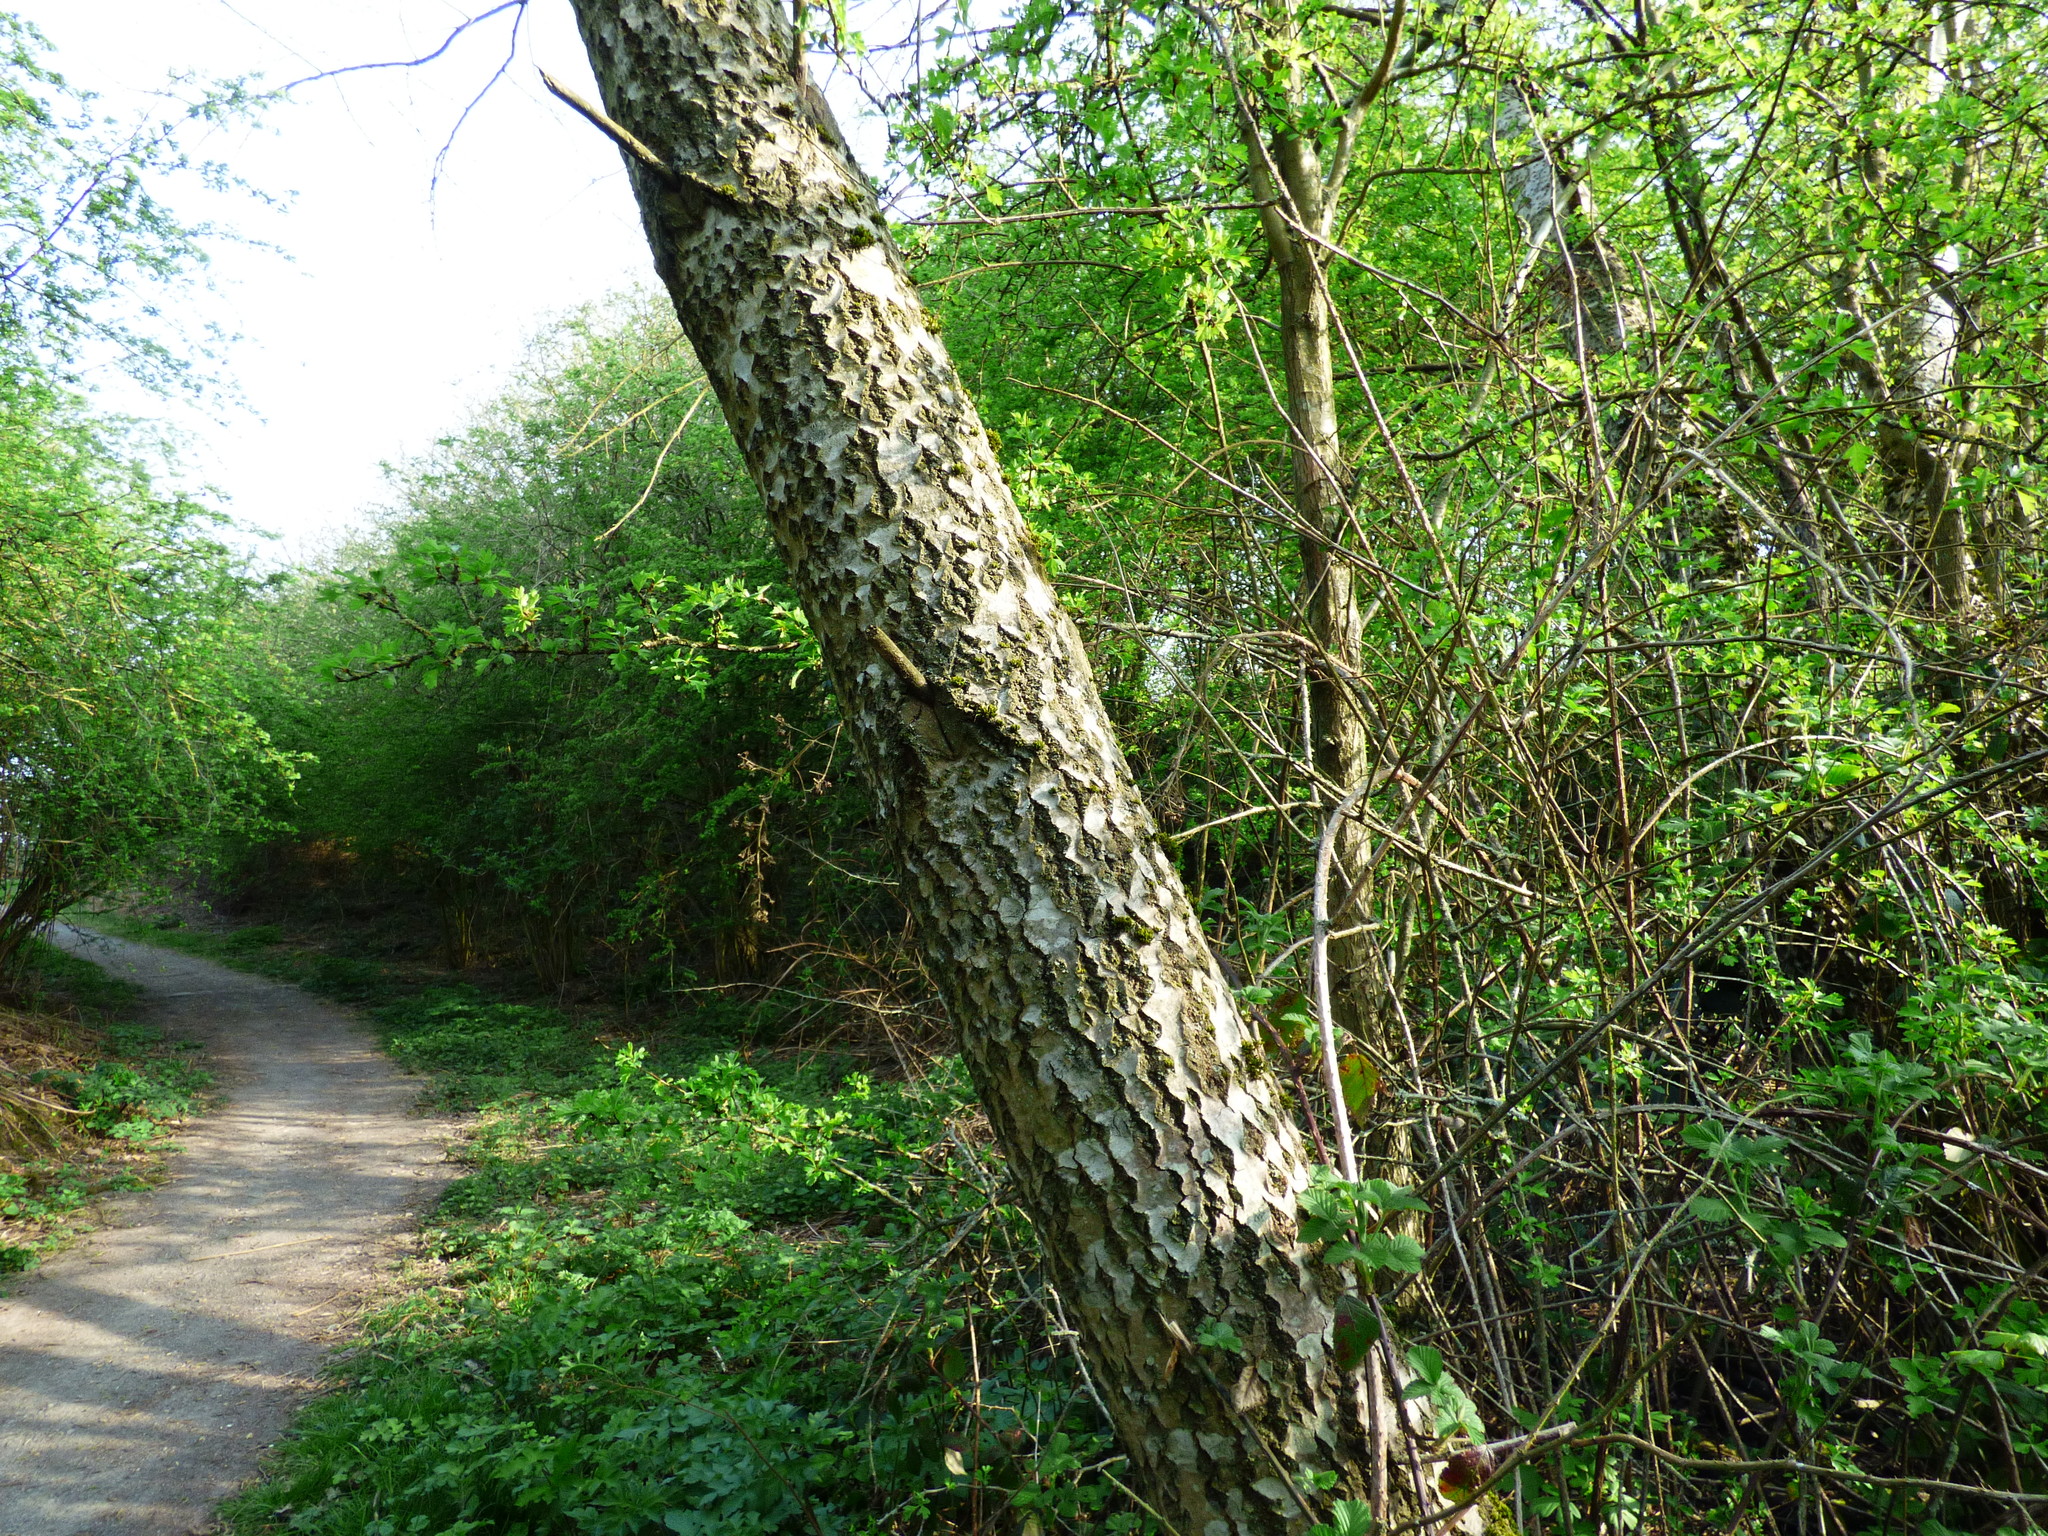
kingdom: Plantae
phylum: Tracheophyta
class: Magnoliopsida
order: Malpighiales
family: Salicaceae
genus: Populus
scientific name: Populus alba
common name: White poplar
